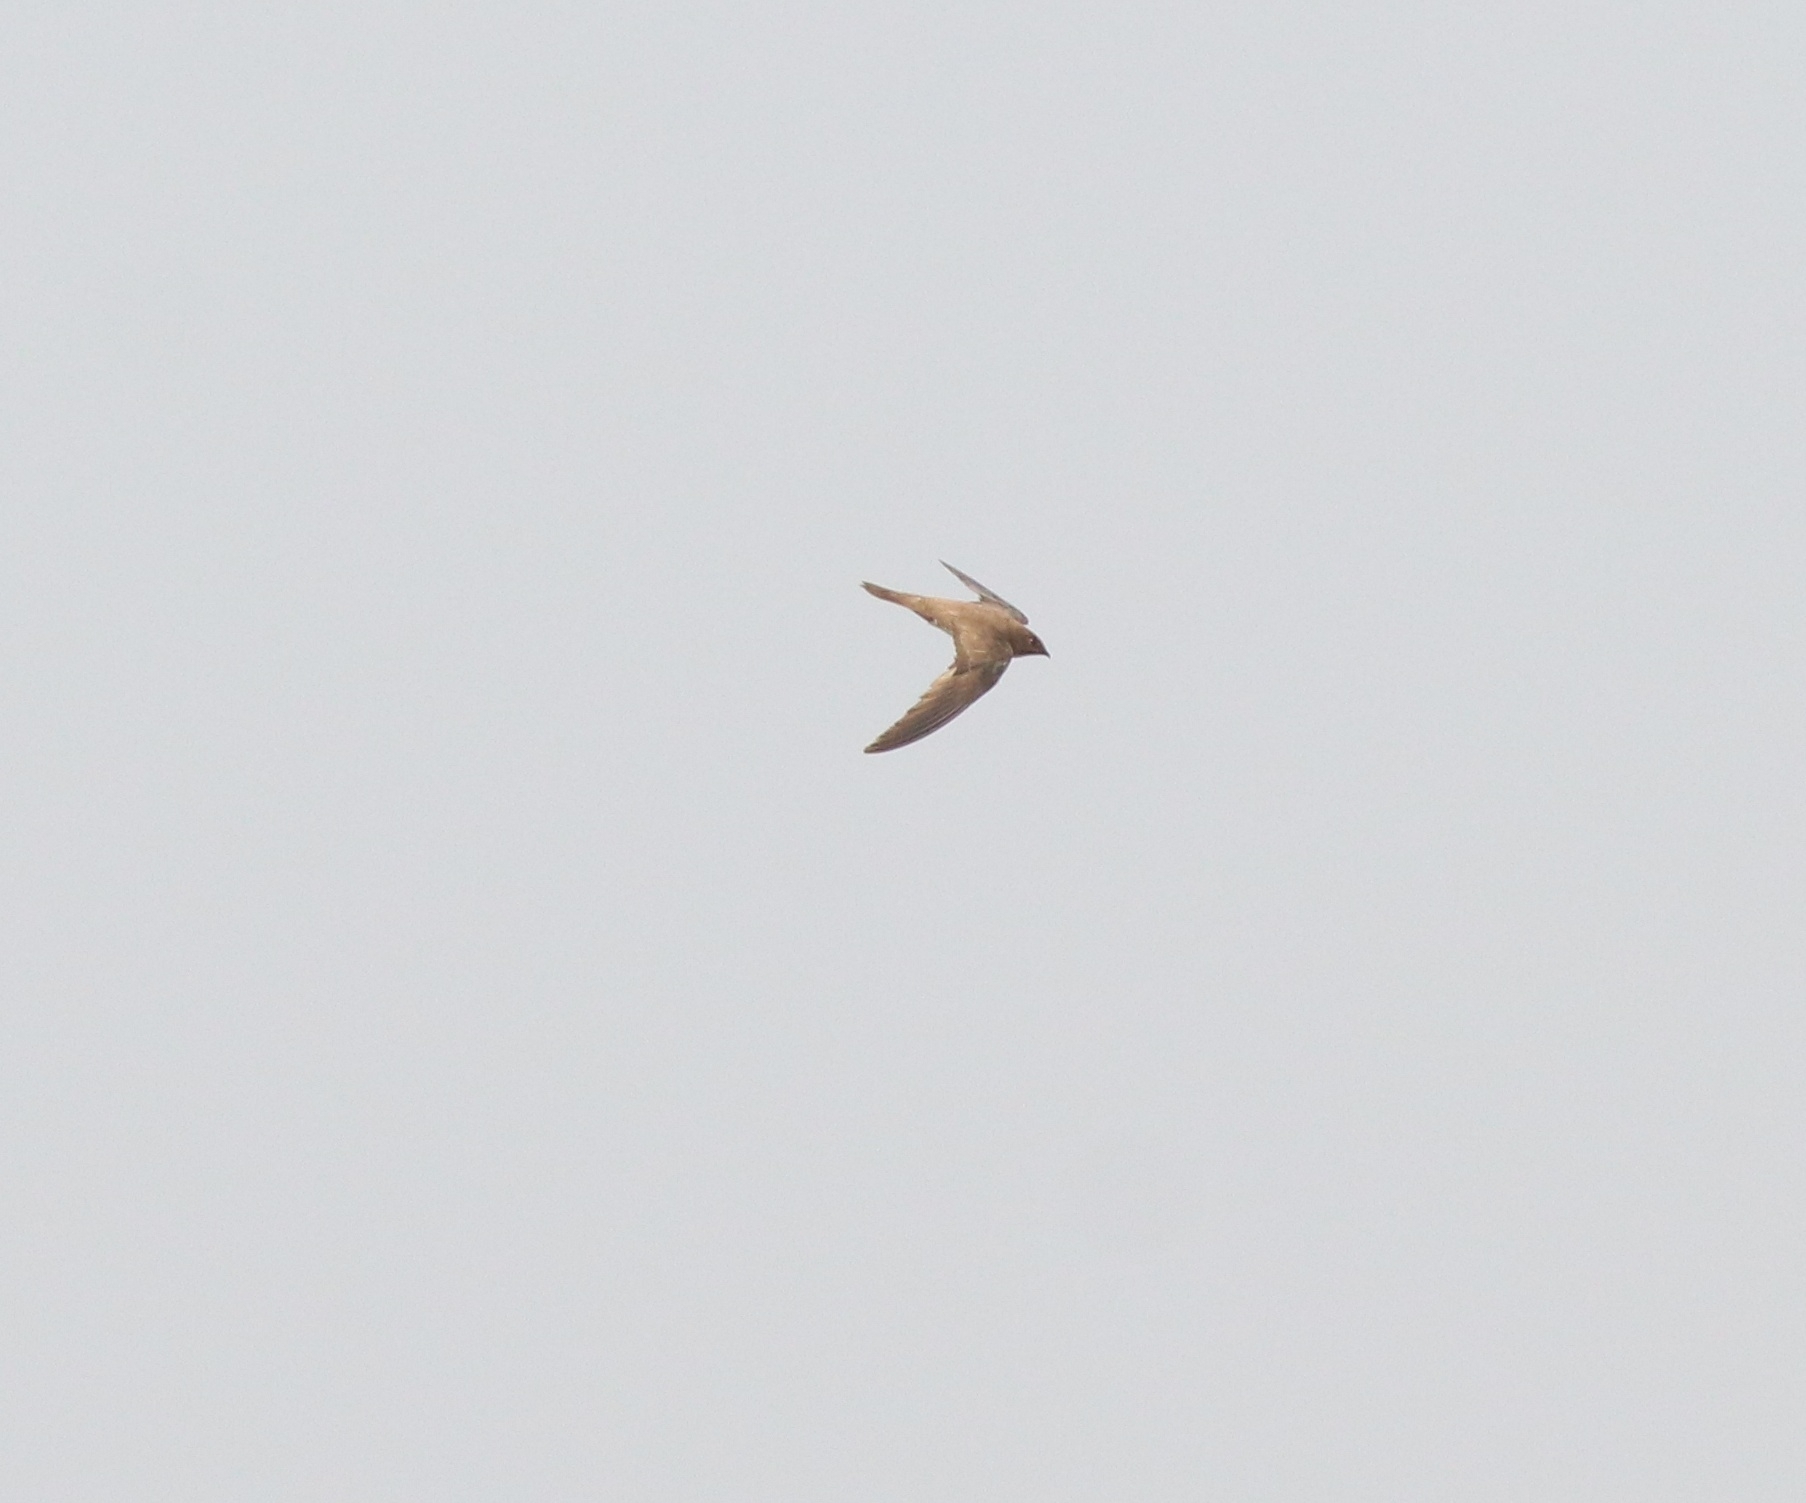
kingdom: Animalia
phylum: Chordata
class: Aves
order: Apodiformes
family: Apodidae
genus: Tachymarptis
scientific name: Tachymarptis melba
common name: Alpine swift
